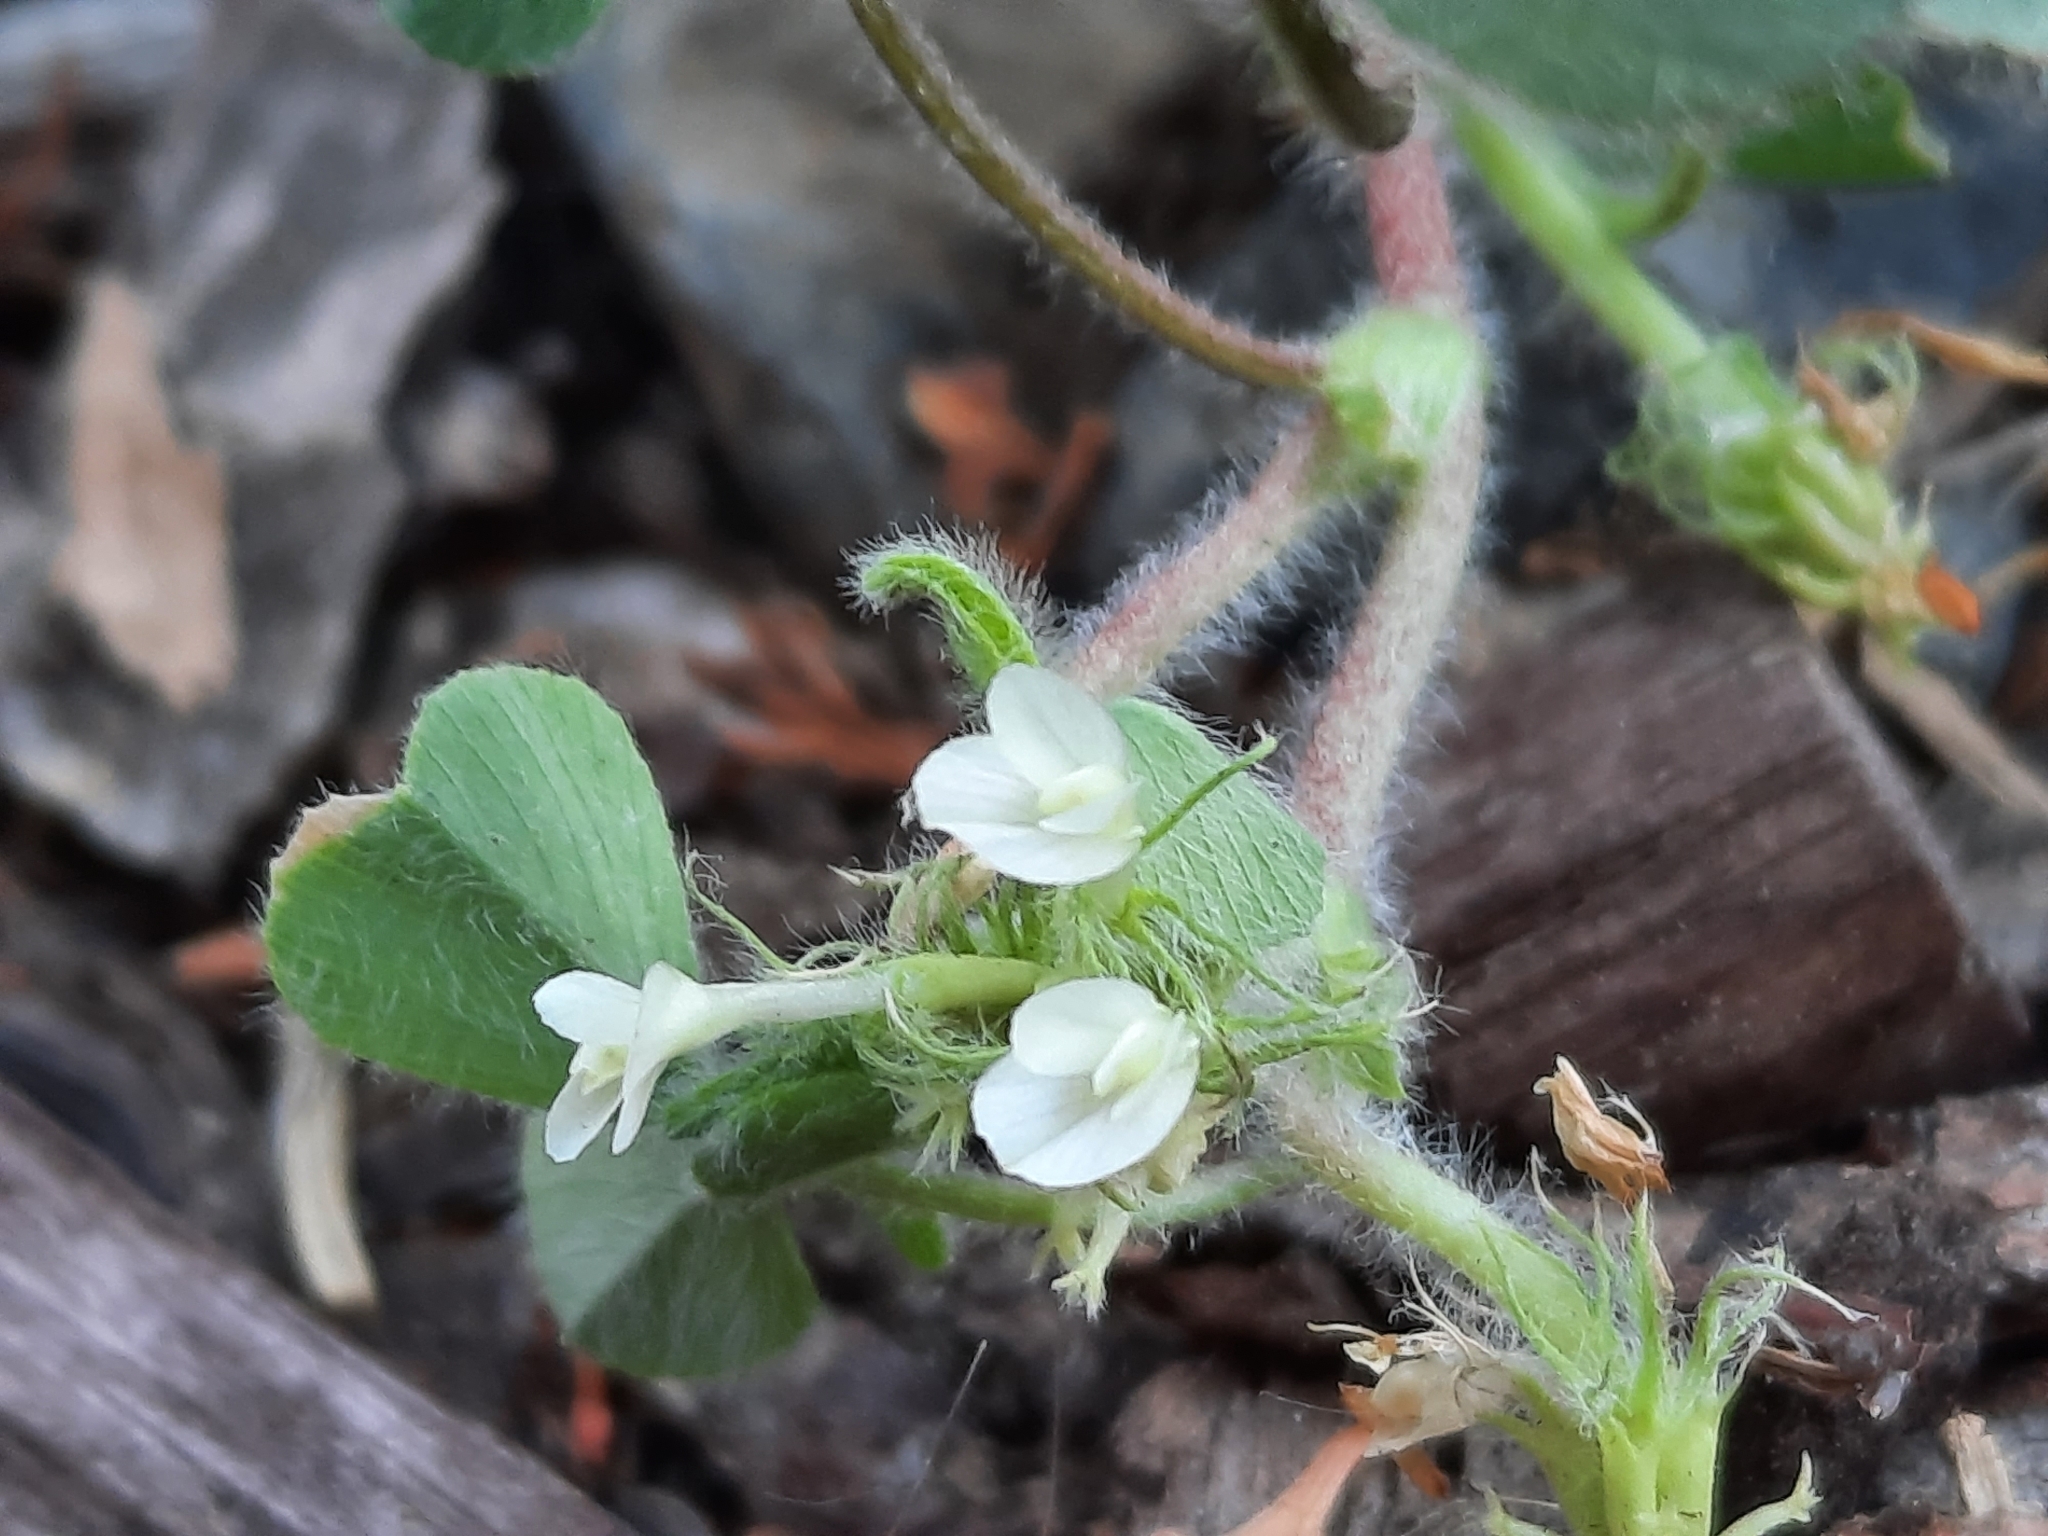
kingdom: Plantae
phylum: Tracheophyta
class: Magnoliopsida
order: Fabales
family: Fabaceae
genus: Trifolium
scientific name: Trifolium subterraneum
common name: Subterranean clover
